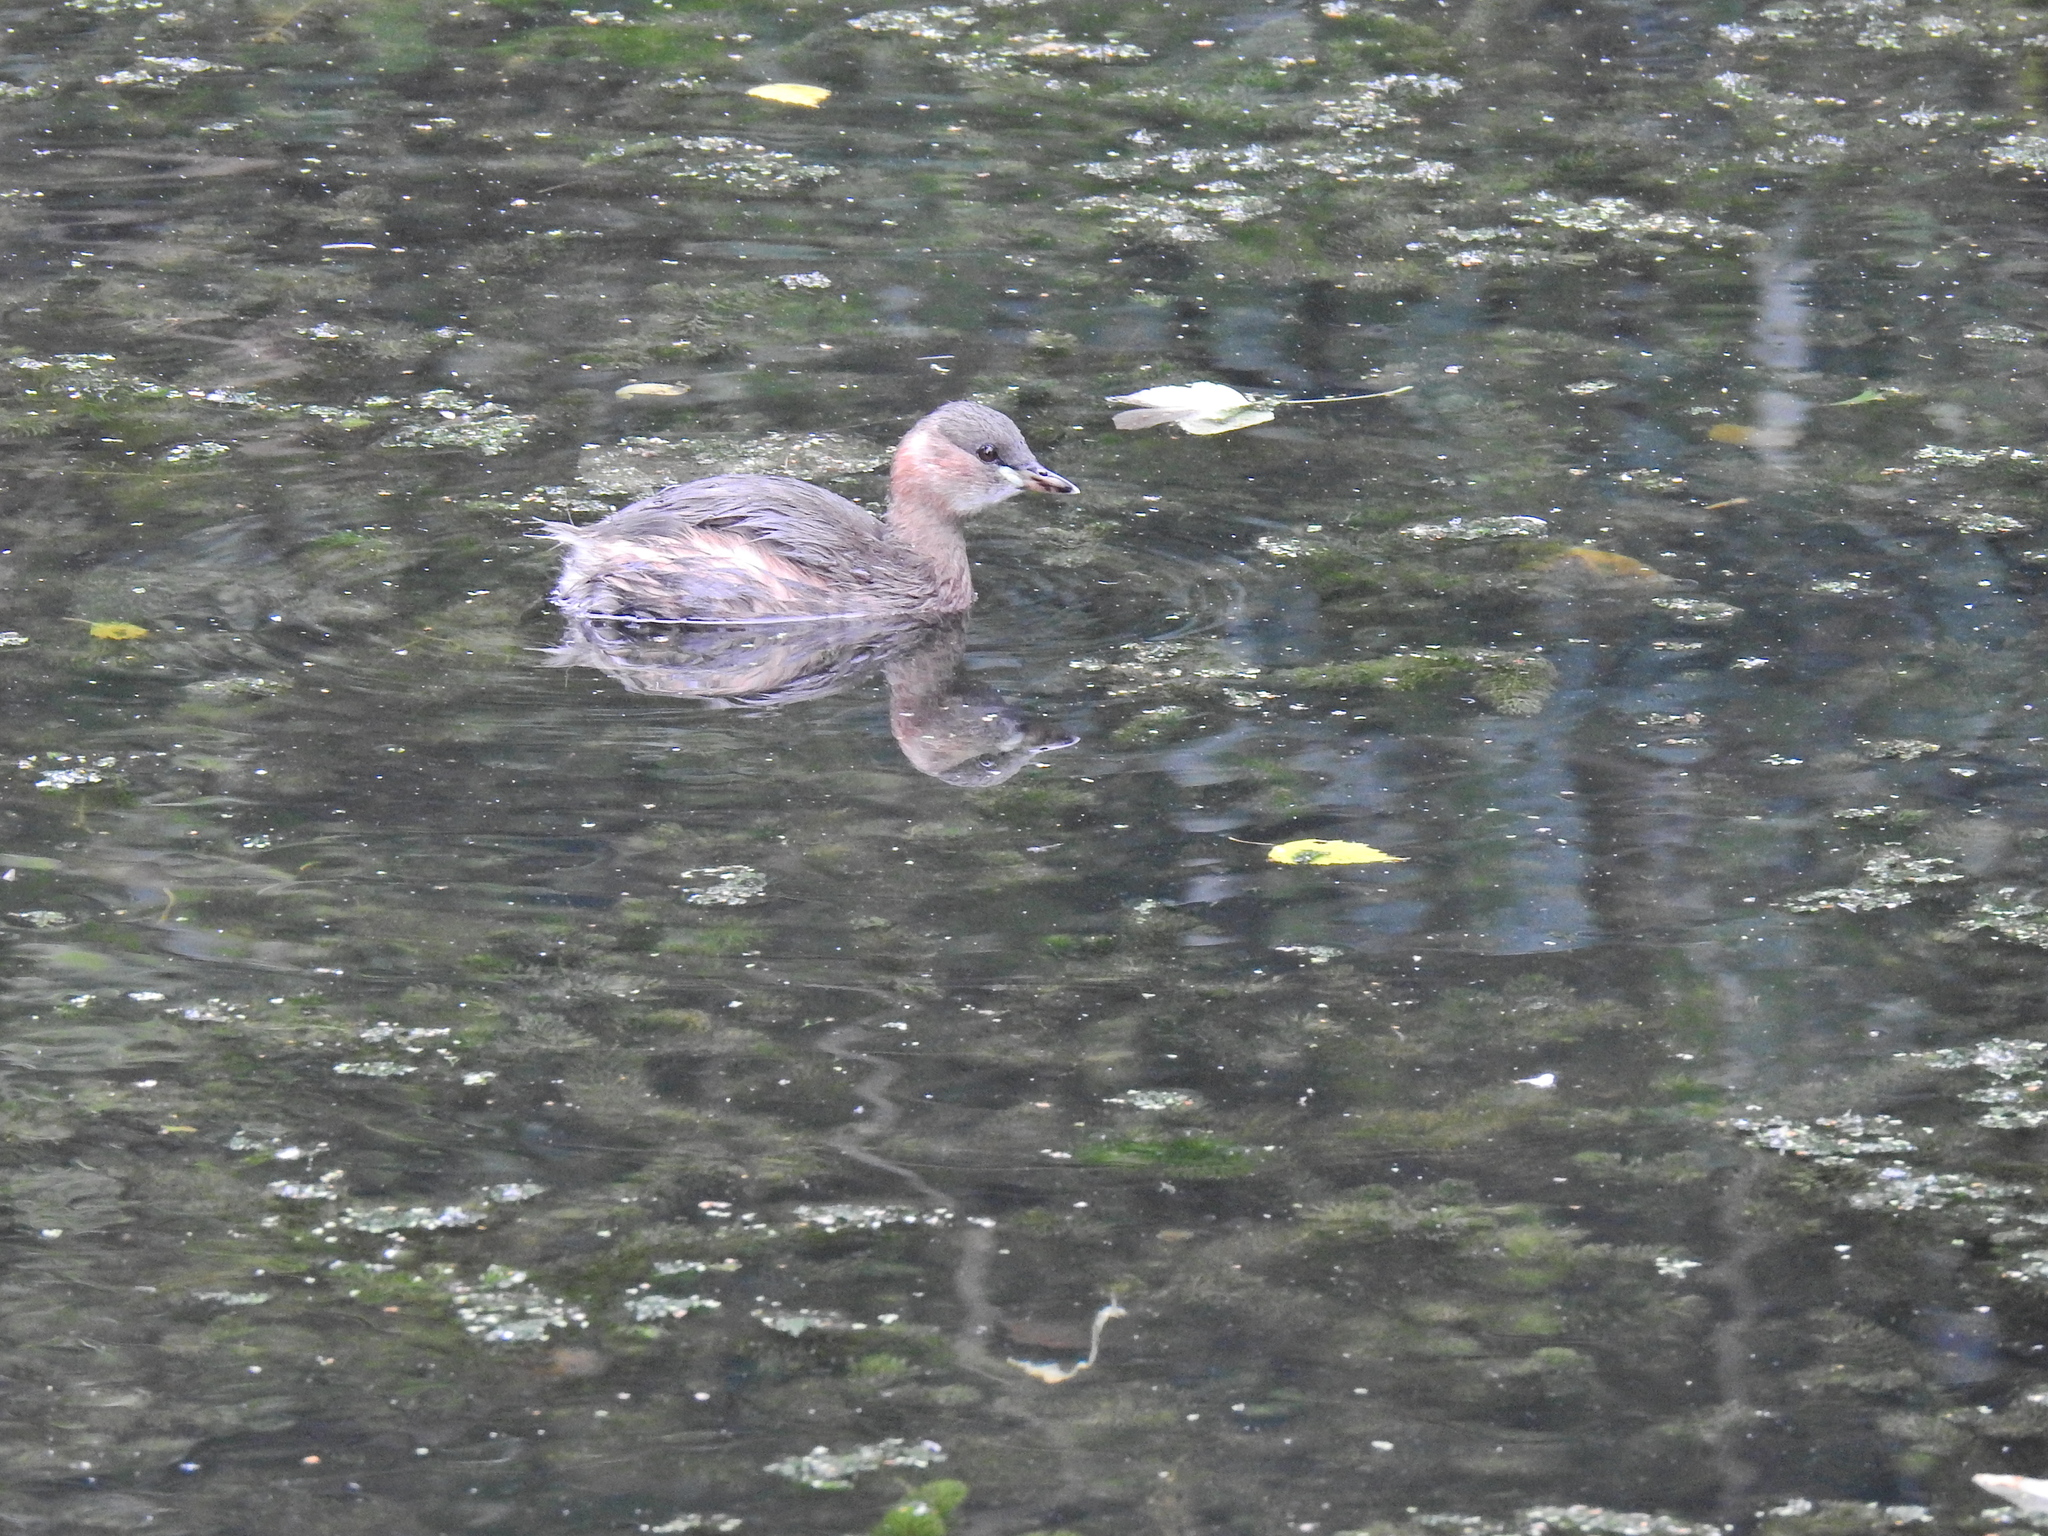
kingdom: Animalia
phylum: Chordata
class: Aves
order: Podicipediformes
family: Podicipedidae
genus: Tachybaptus
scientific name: Tachybaptus ruficollis
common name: Little grebe
